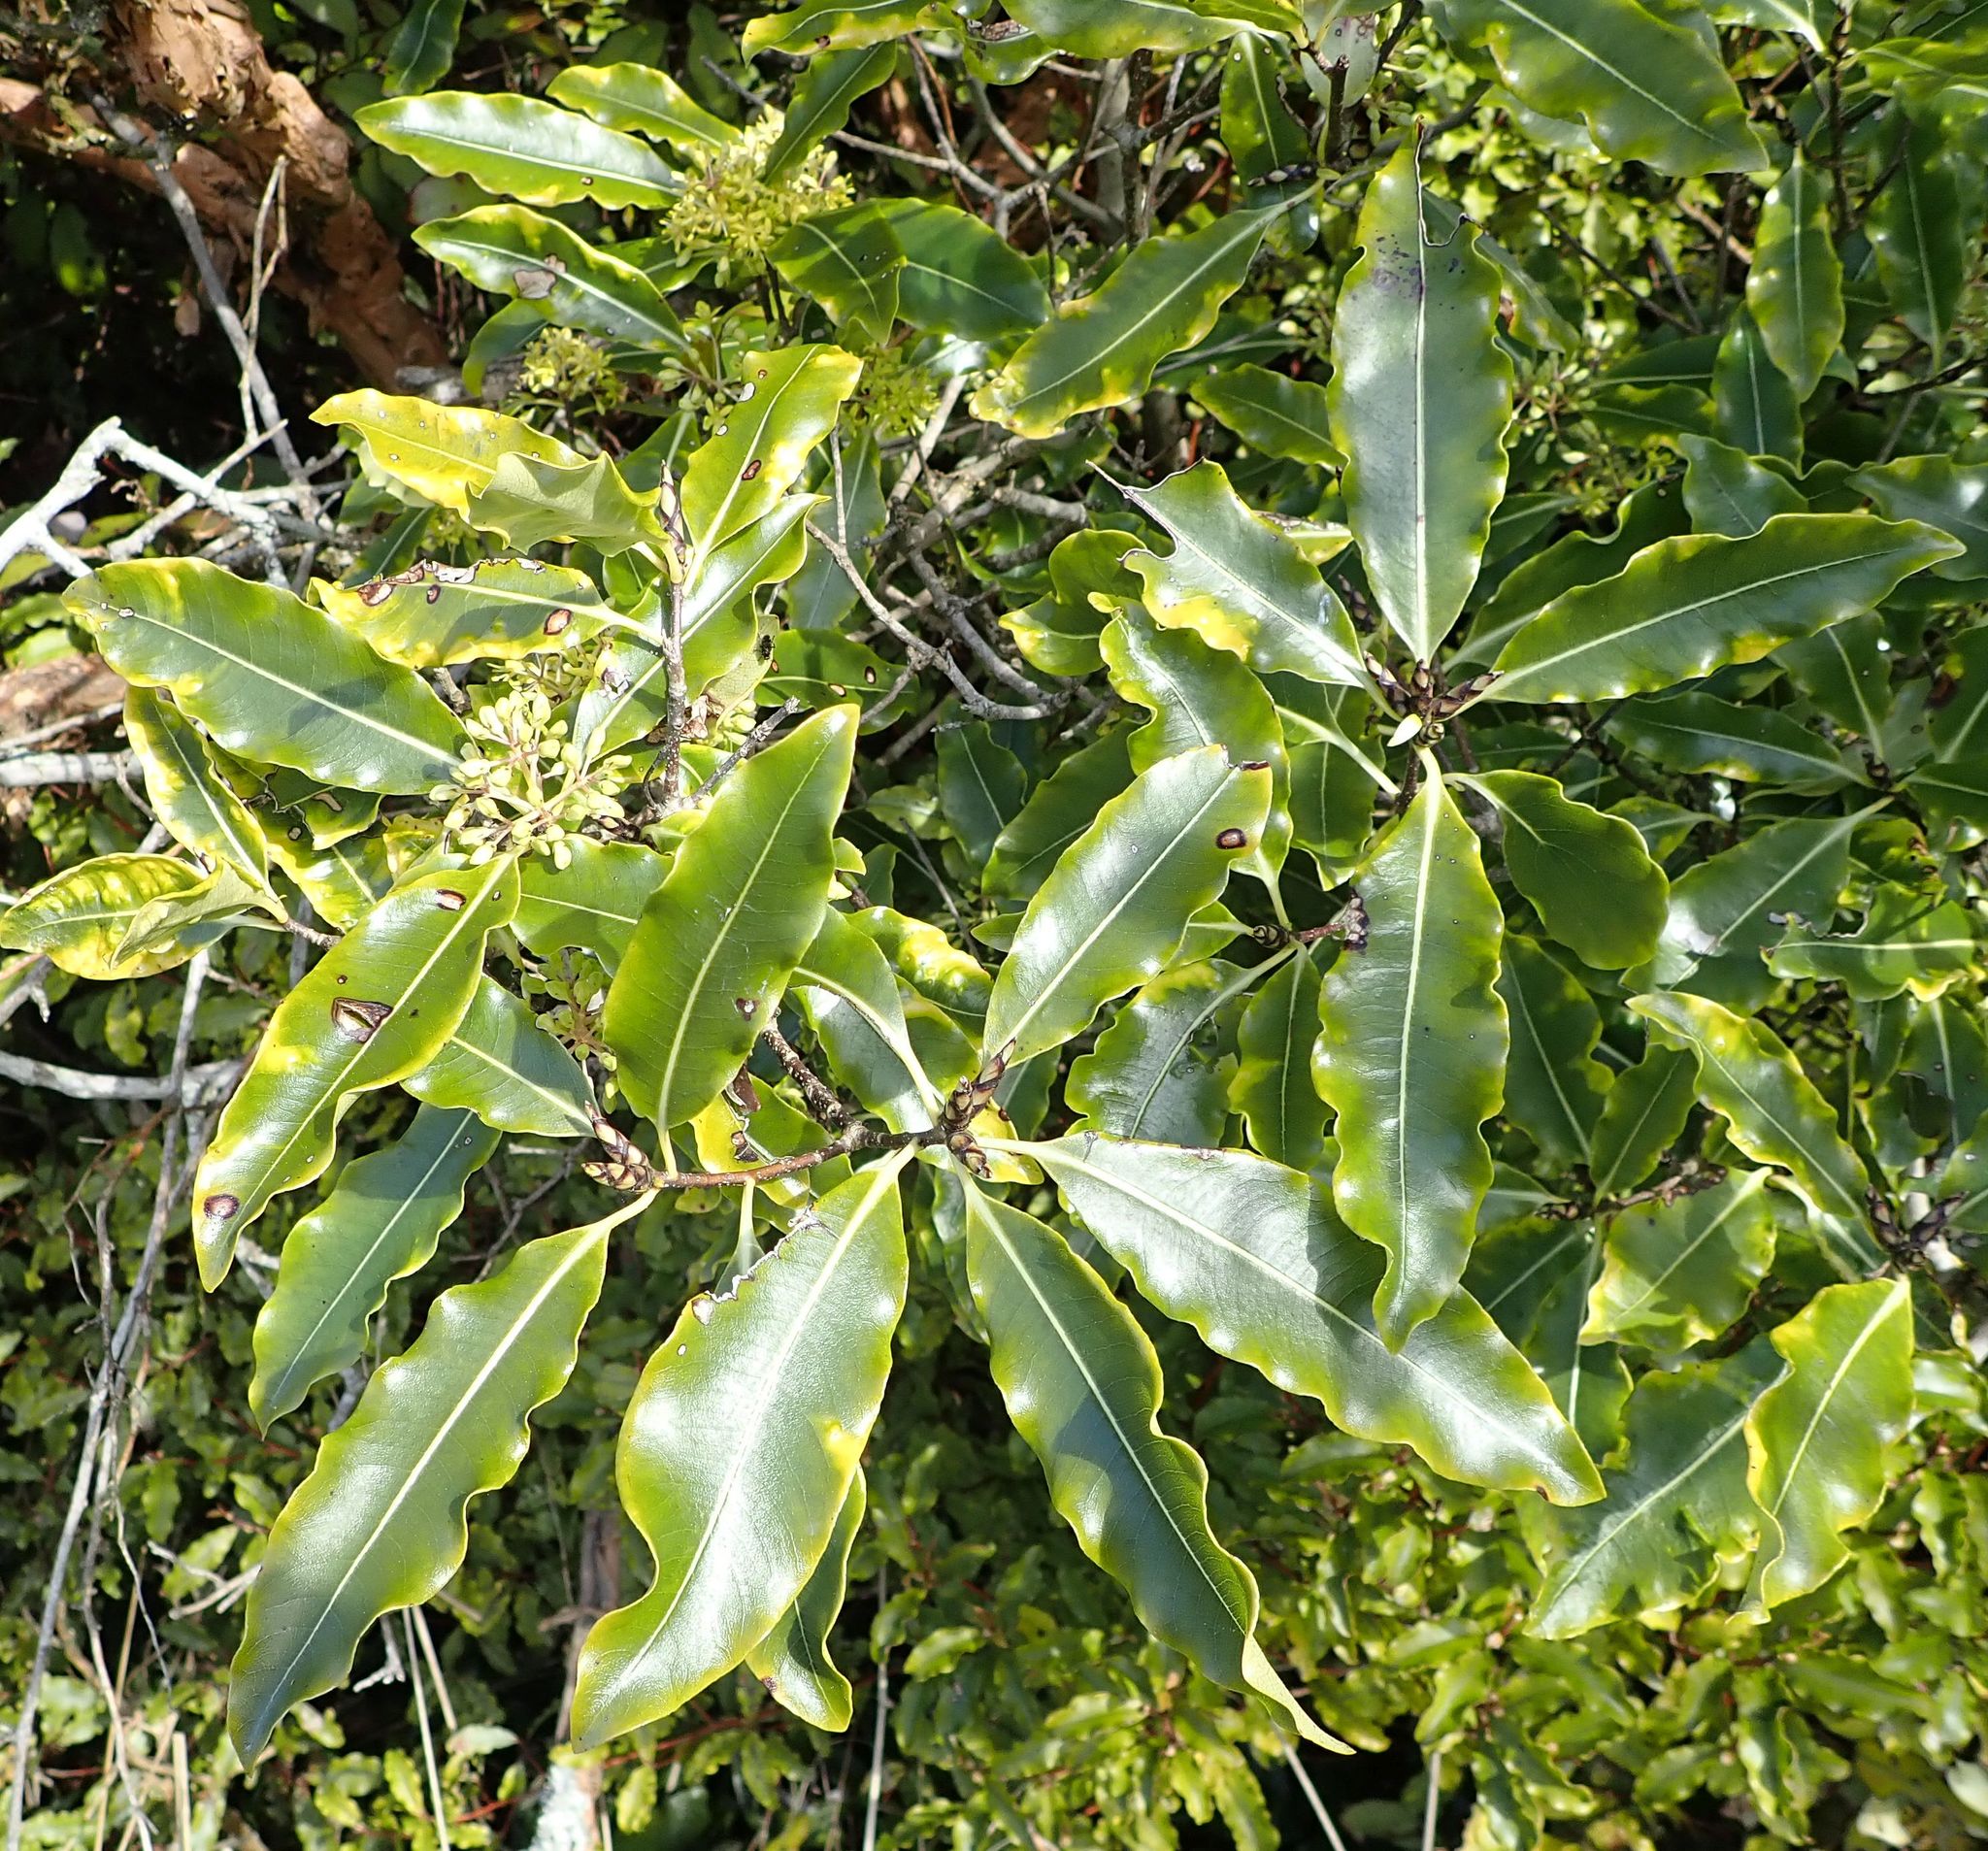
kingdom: Plantae
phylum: Tracheophyta
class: Magnoliopsida
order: Apiales
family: Pittosporaceae
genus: Pittosporum
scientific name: Pittosporum eugenioides
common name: Lemonwood
